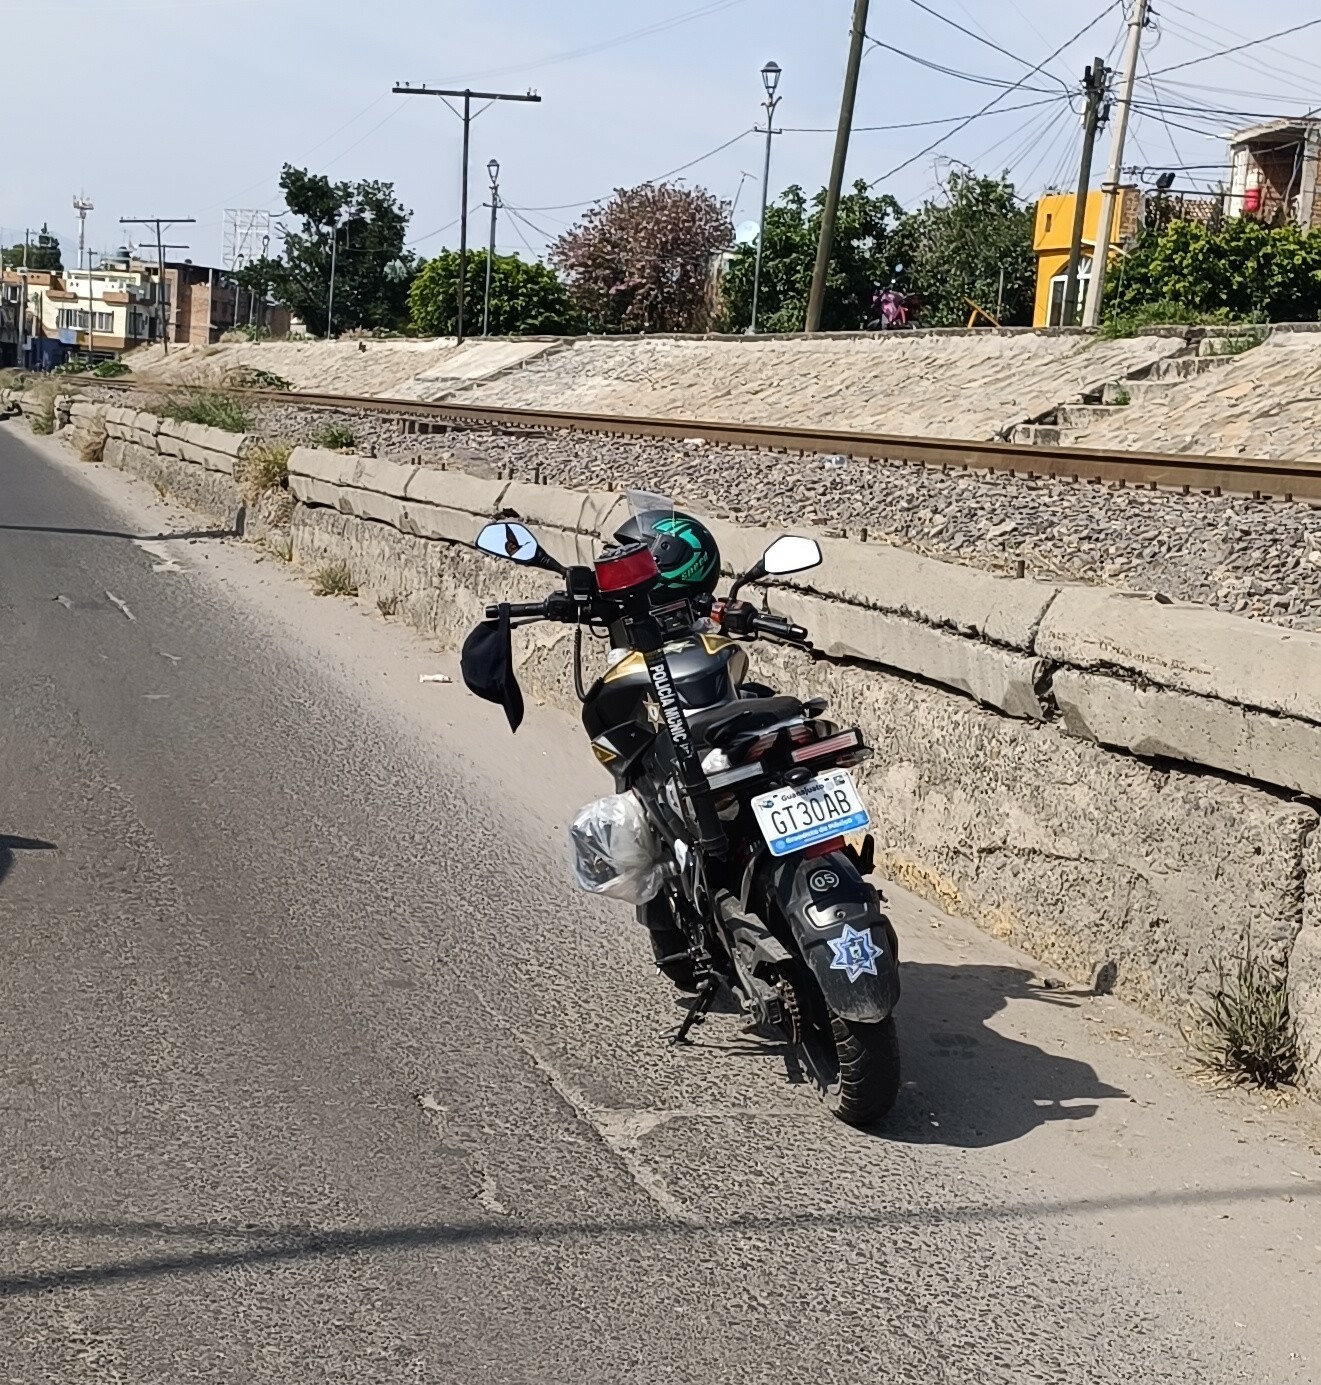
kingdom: Animalia
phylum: Arthropoda
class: Insecta
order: Lepidoptera
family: Nymphalidae
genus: Danaus
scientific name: Danaus plexippus
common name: Monarch
